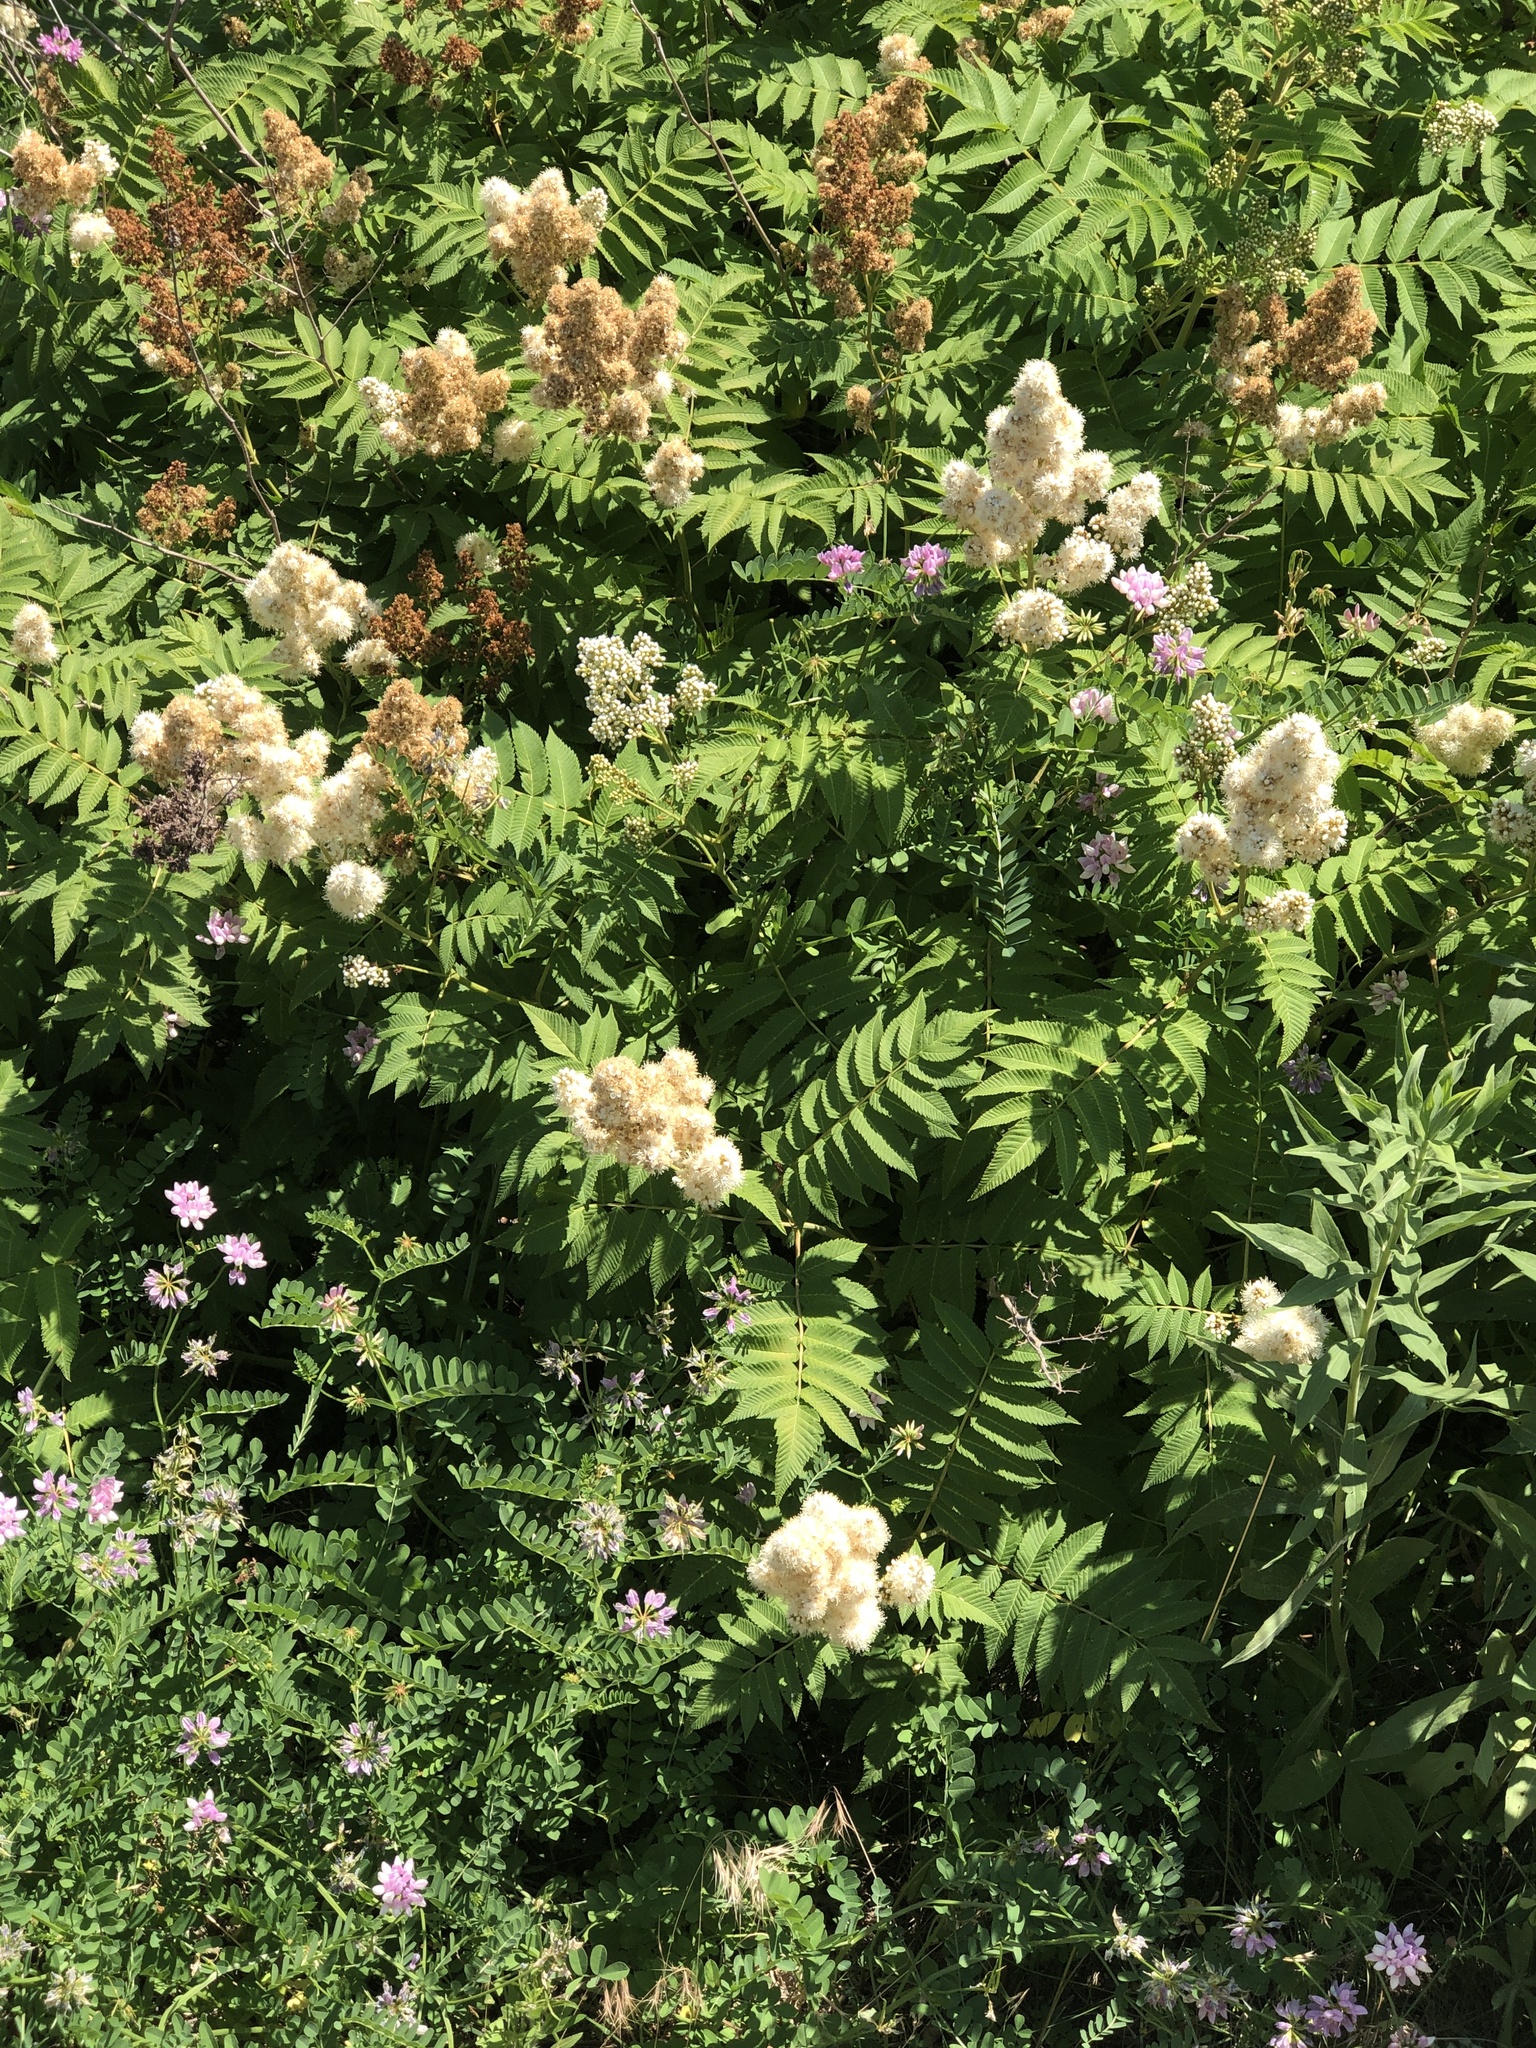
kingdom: Plantae
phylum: Tracheophyta
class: Magnoliopsida
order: Rosales
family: Rosaceae
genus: Sorbaria
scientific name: Sorbaria sorbifolia
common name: False spiraea
